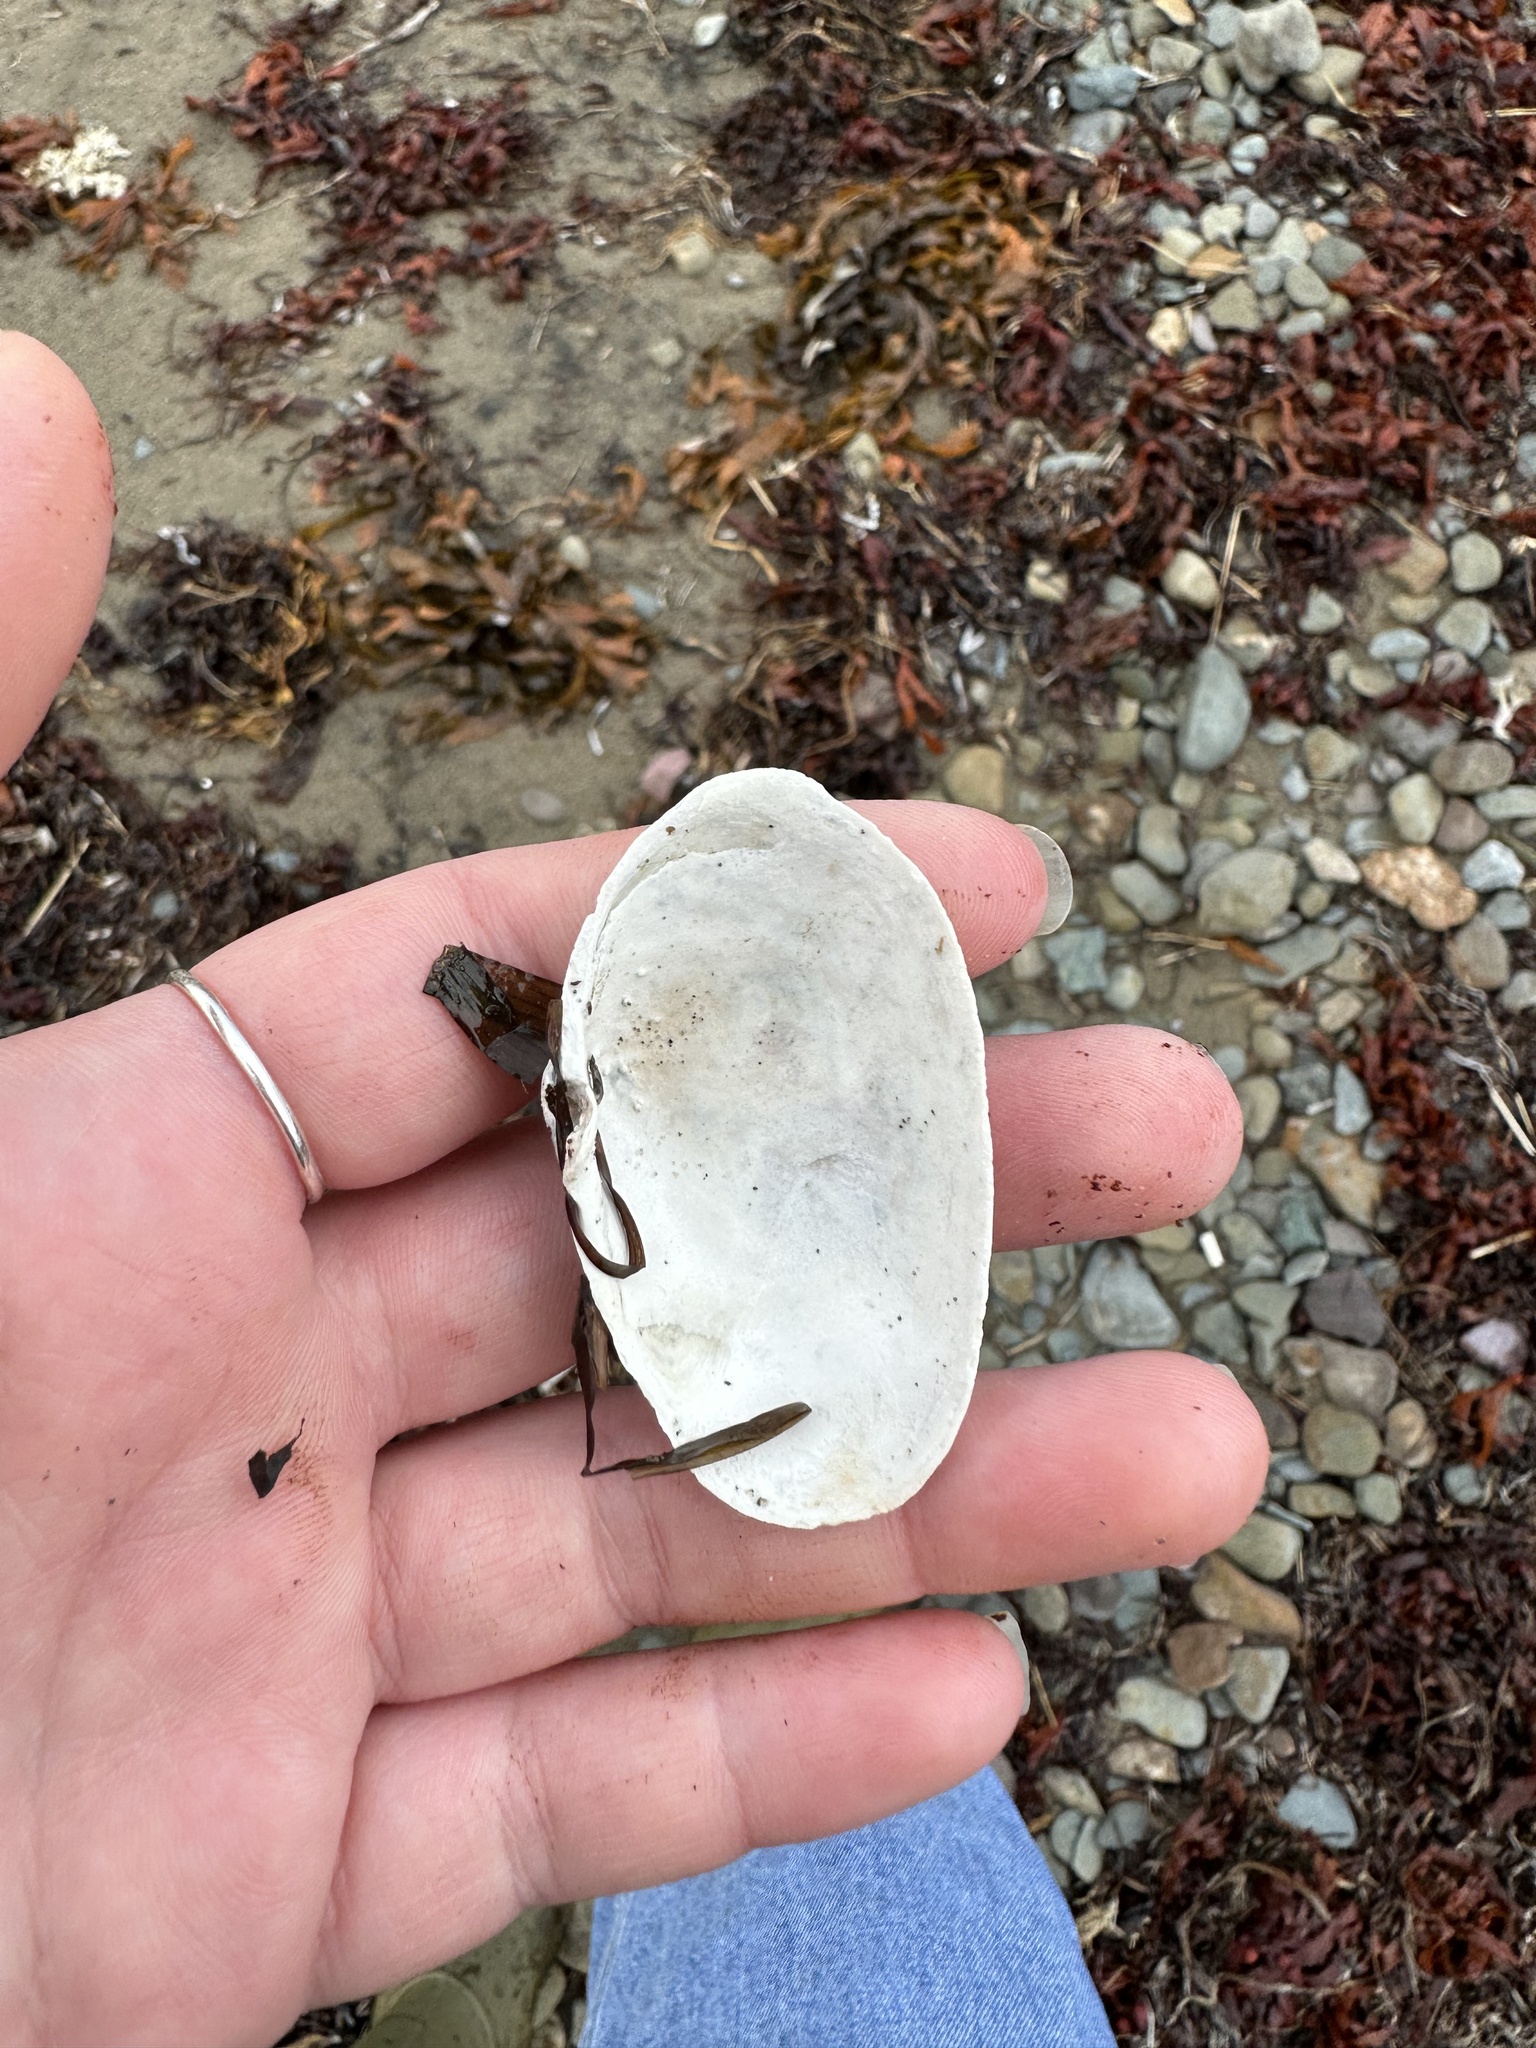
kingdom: Animalia
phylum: Mollusca
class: Bivalvia
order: Myida
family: Myidae
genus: Mya
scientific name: Mya arenaria
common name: Soft-shelled clam
